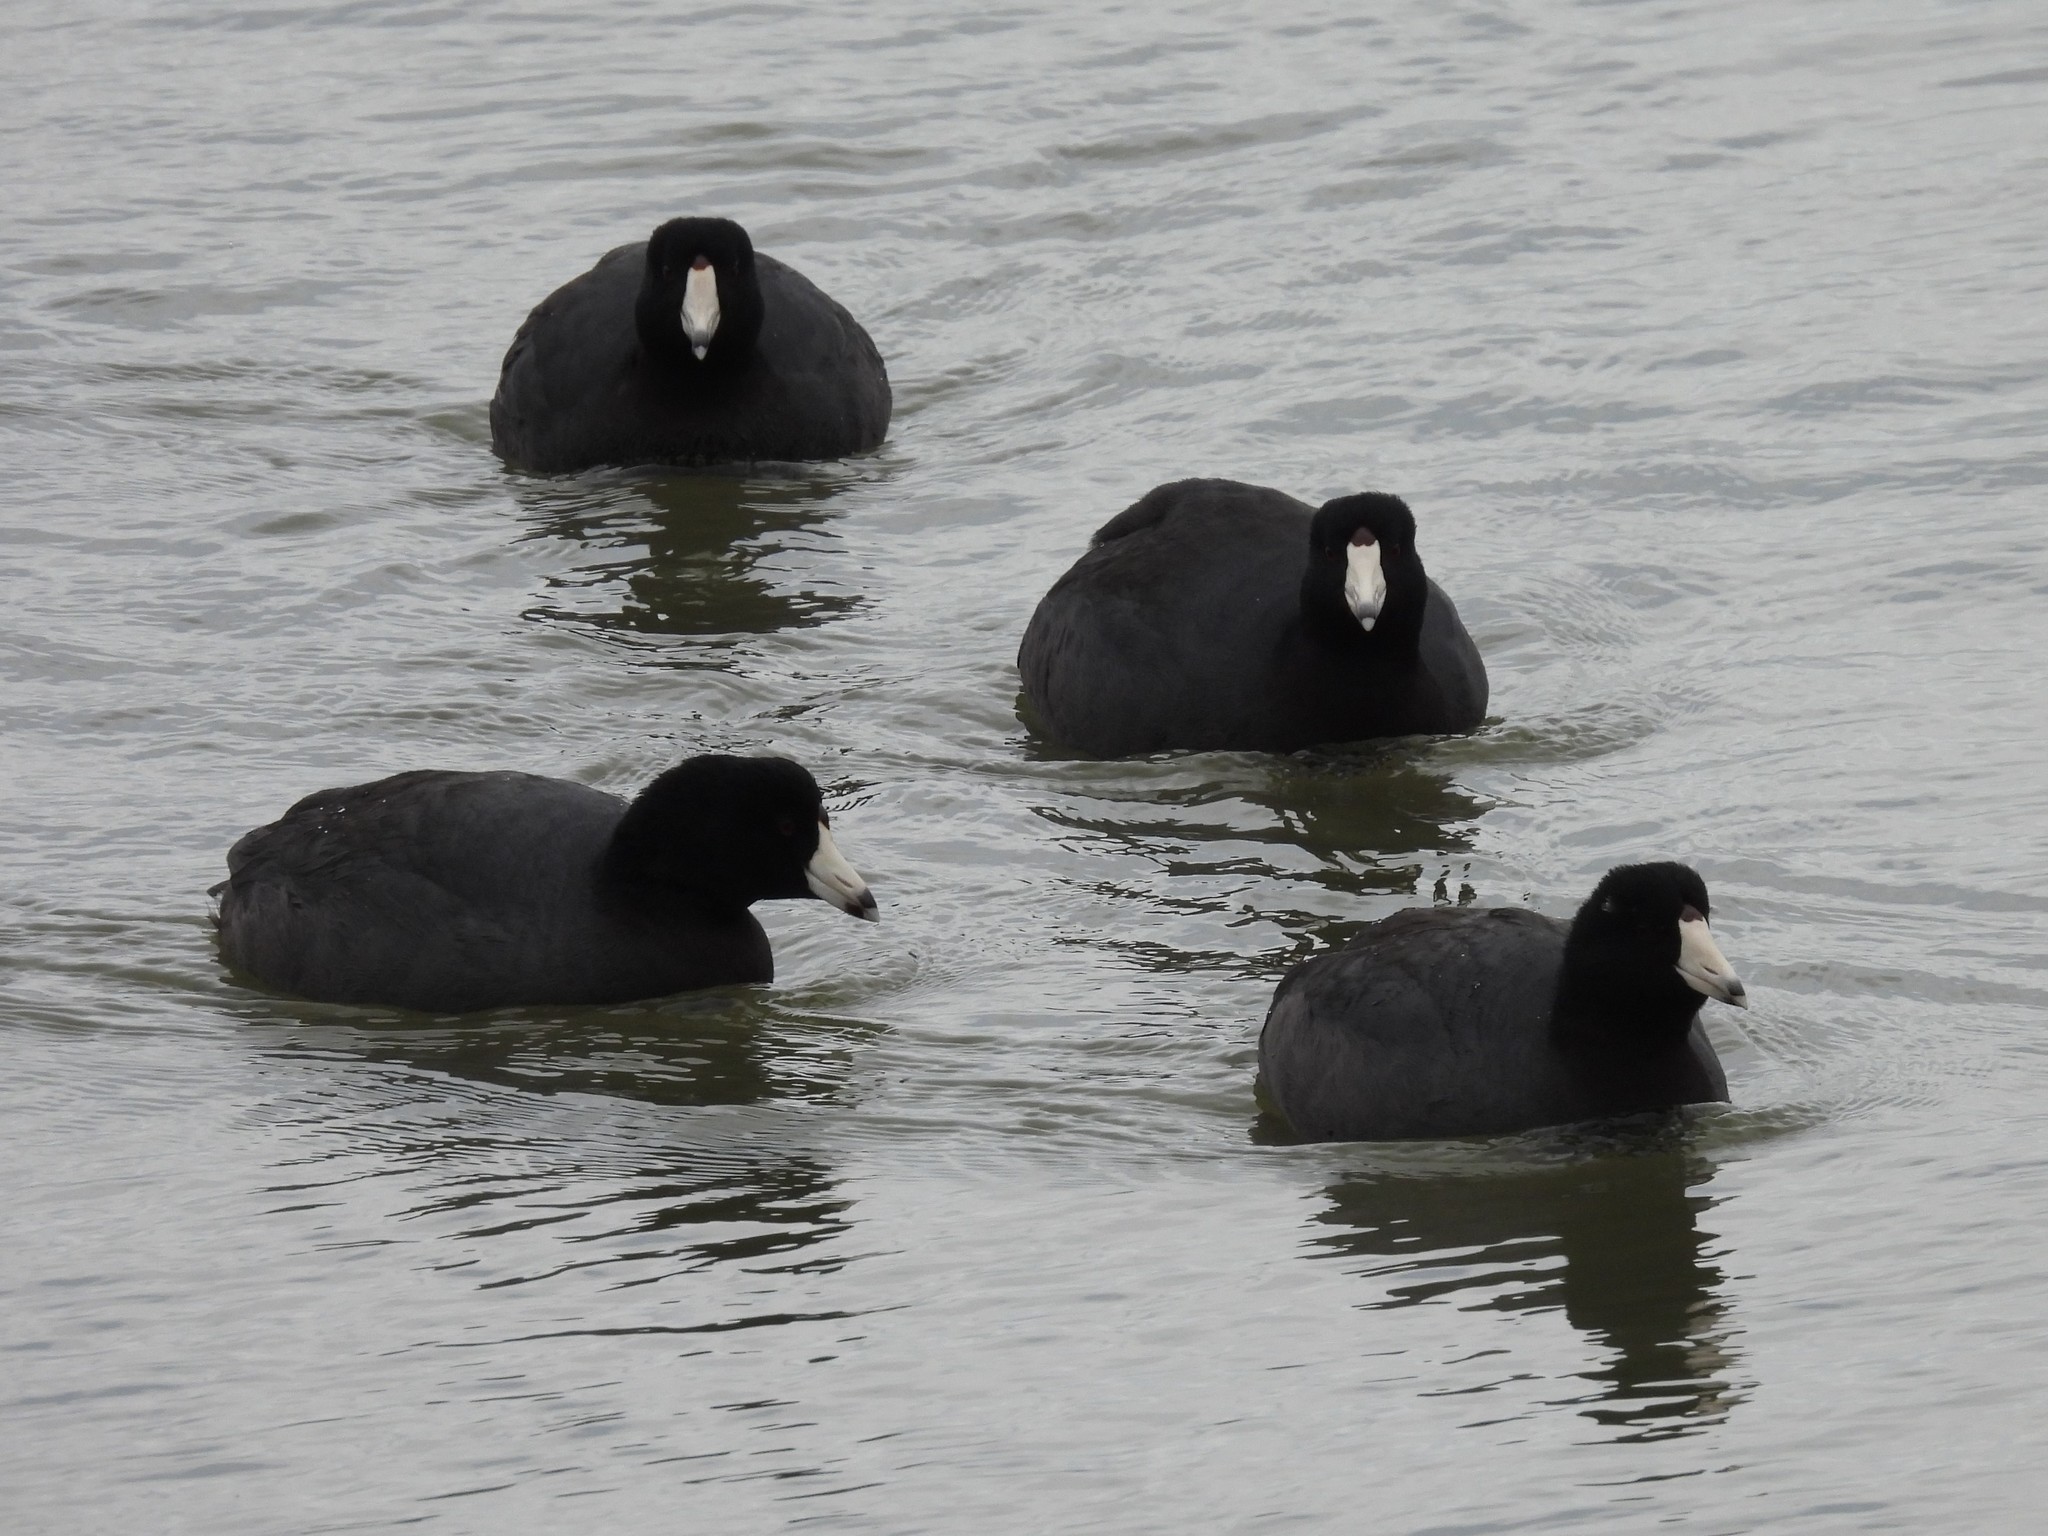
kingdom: Animalia
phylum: Chordata
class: Aves
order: Gruiformes
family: Rallidae
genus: Fulica
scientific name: Fulica americana
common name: American coot
